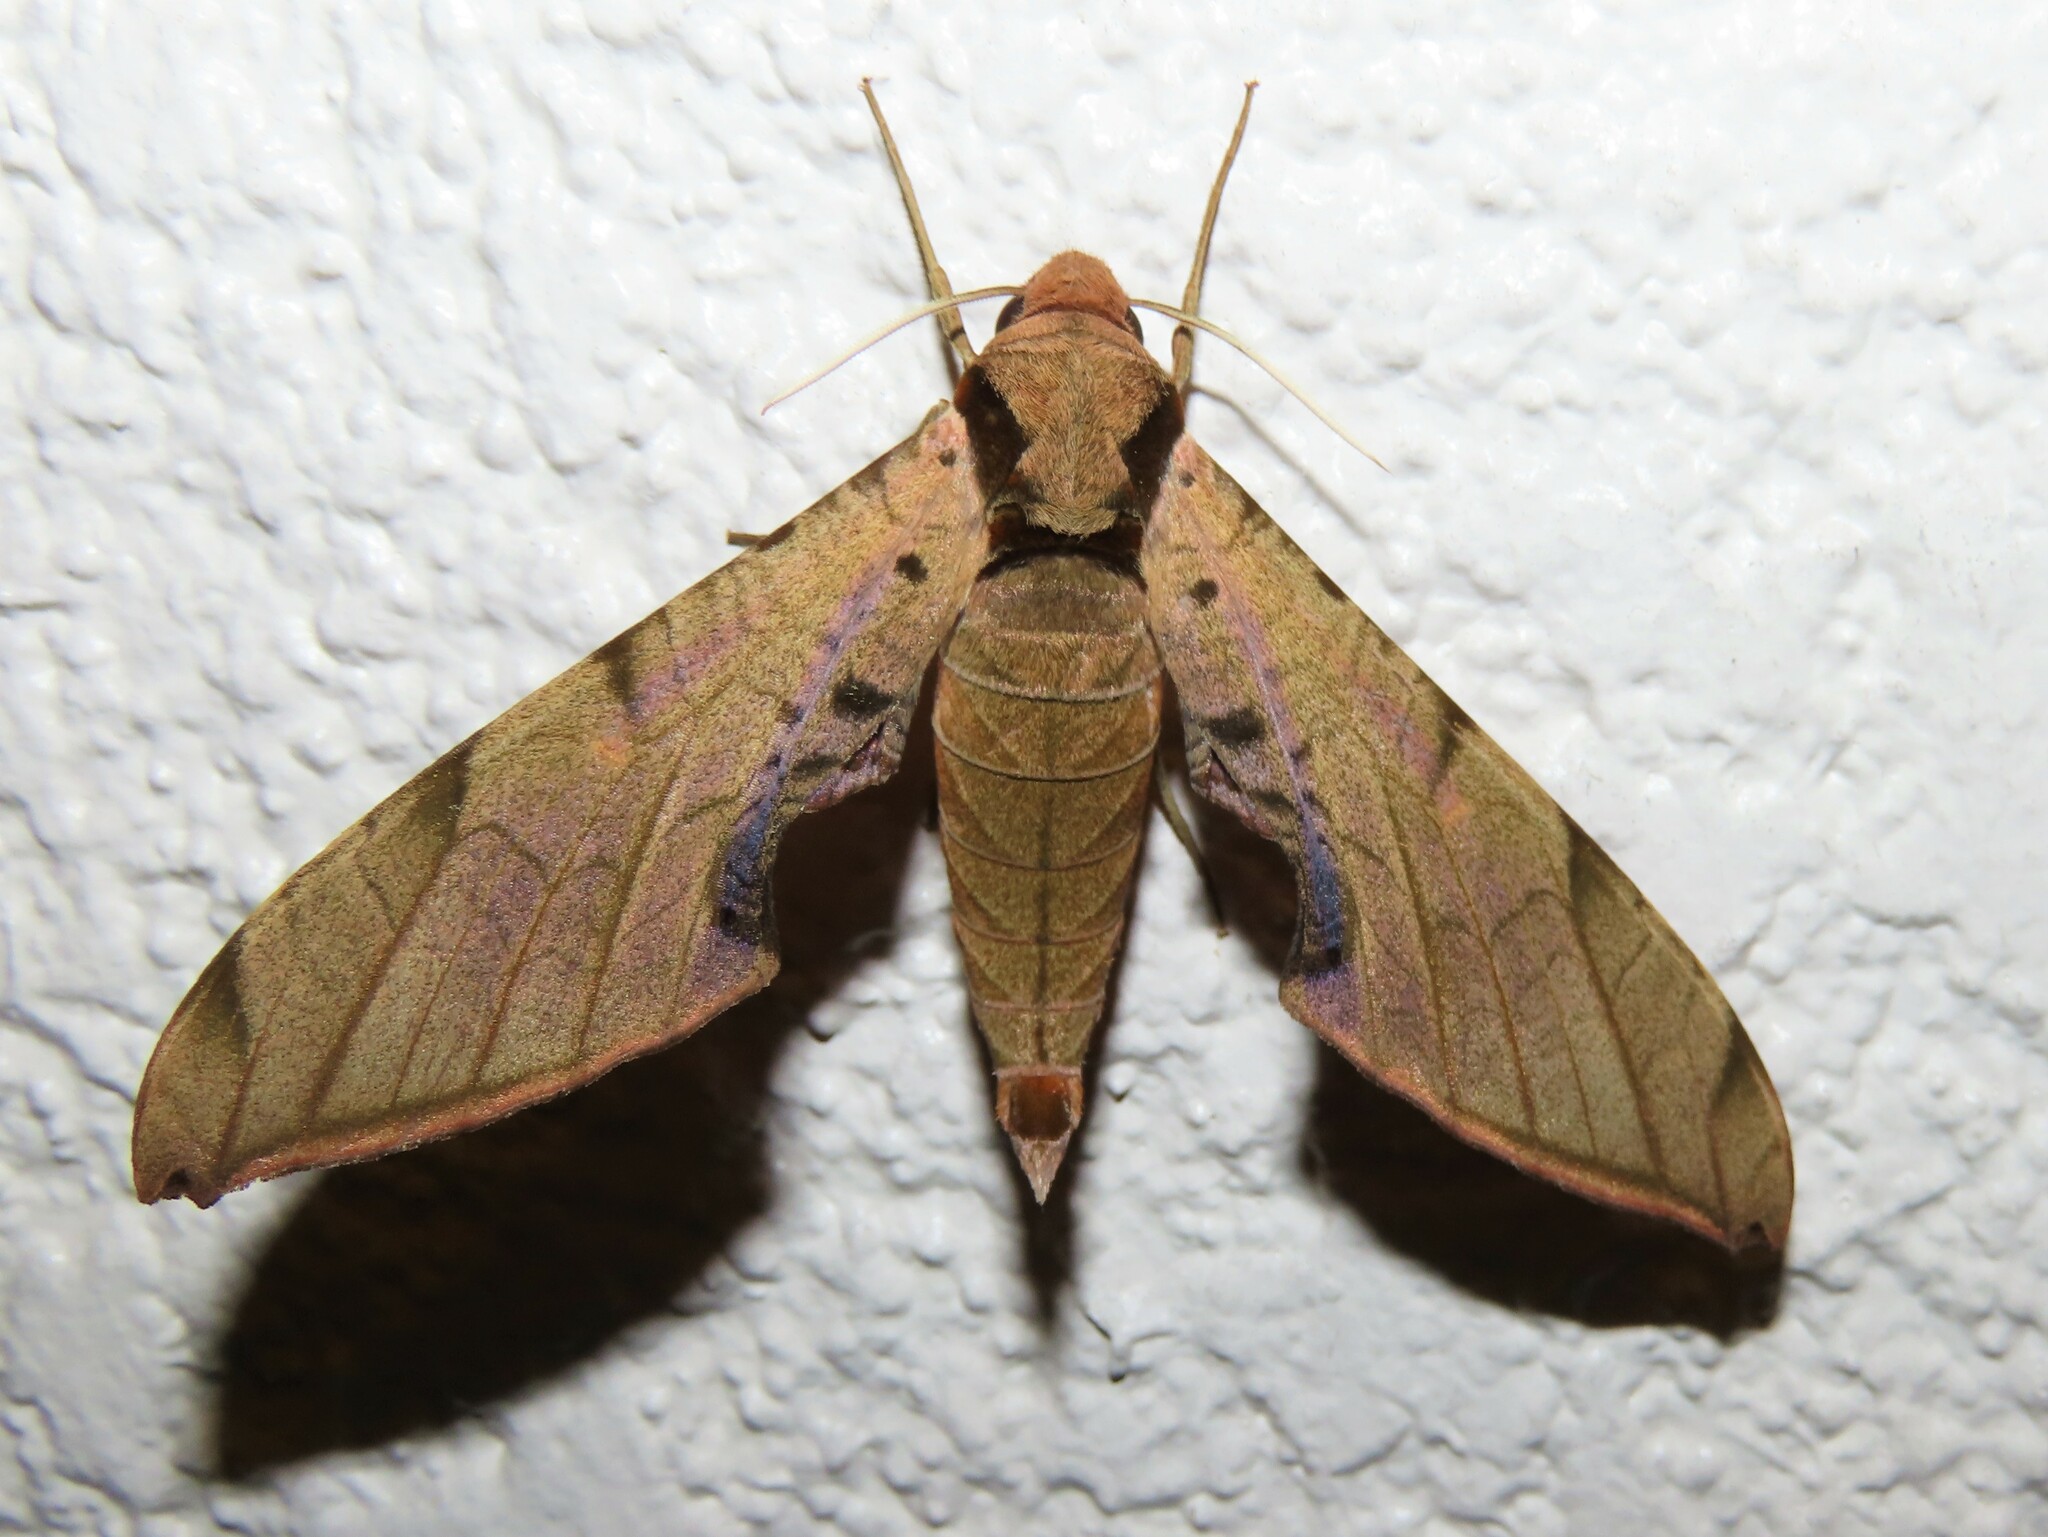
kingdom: Animalia
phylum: Arthropoda
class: Insecta
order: Lepidoptera
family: Sphingidae
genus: Protambulyx
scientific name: Protambulyx strigilis
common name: Streaked sphinx
